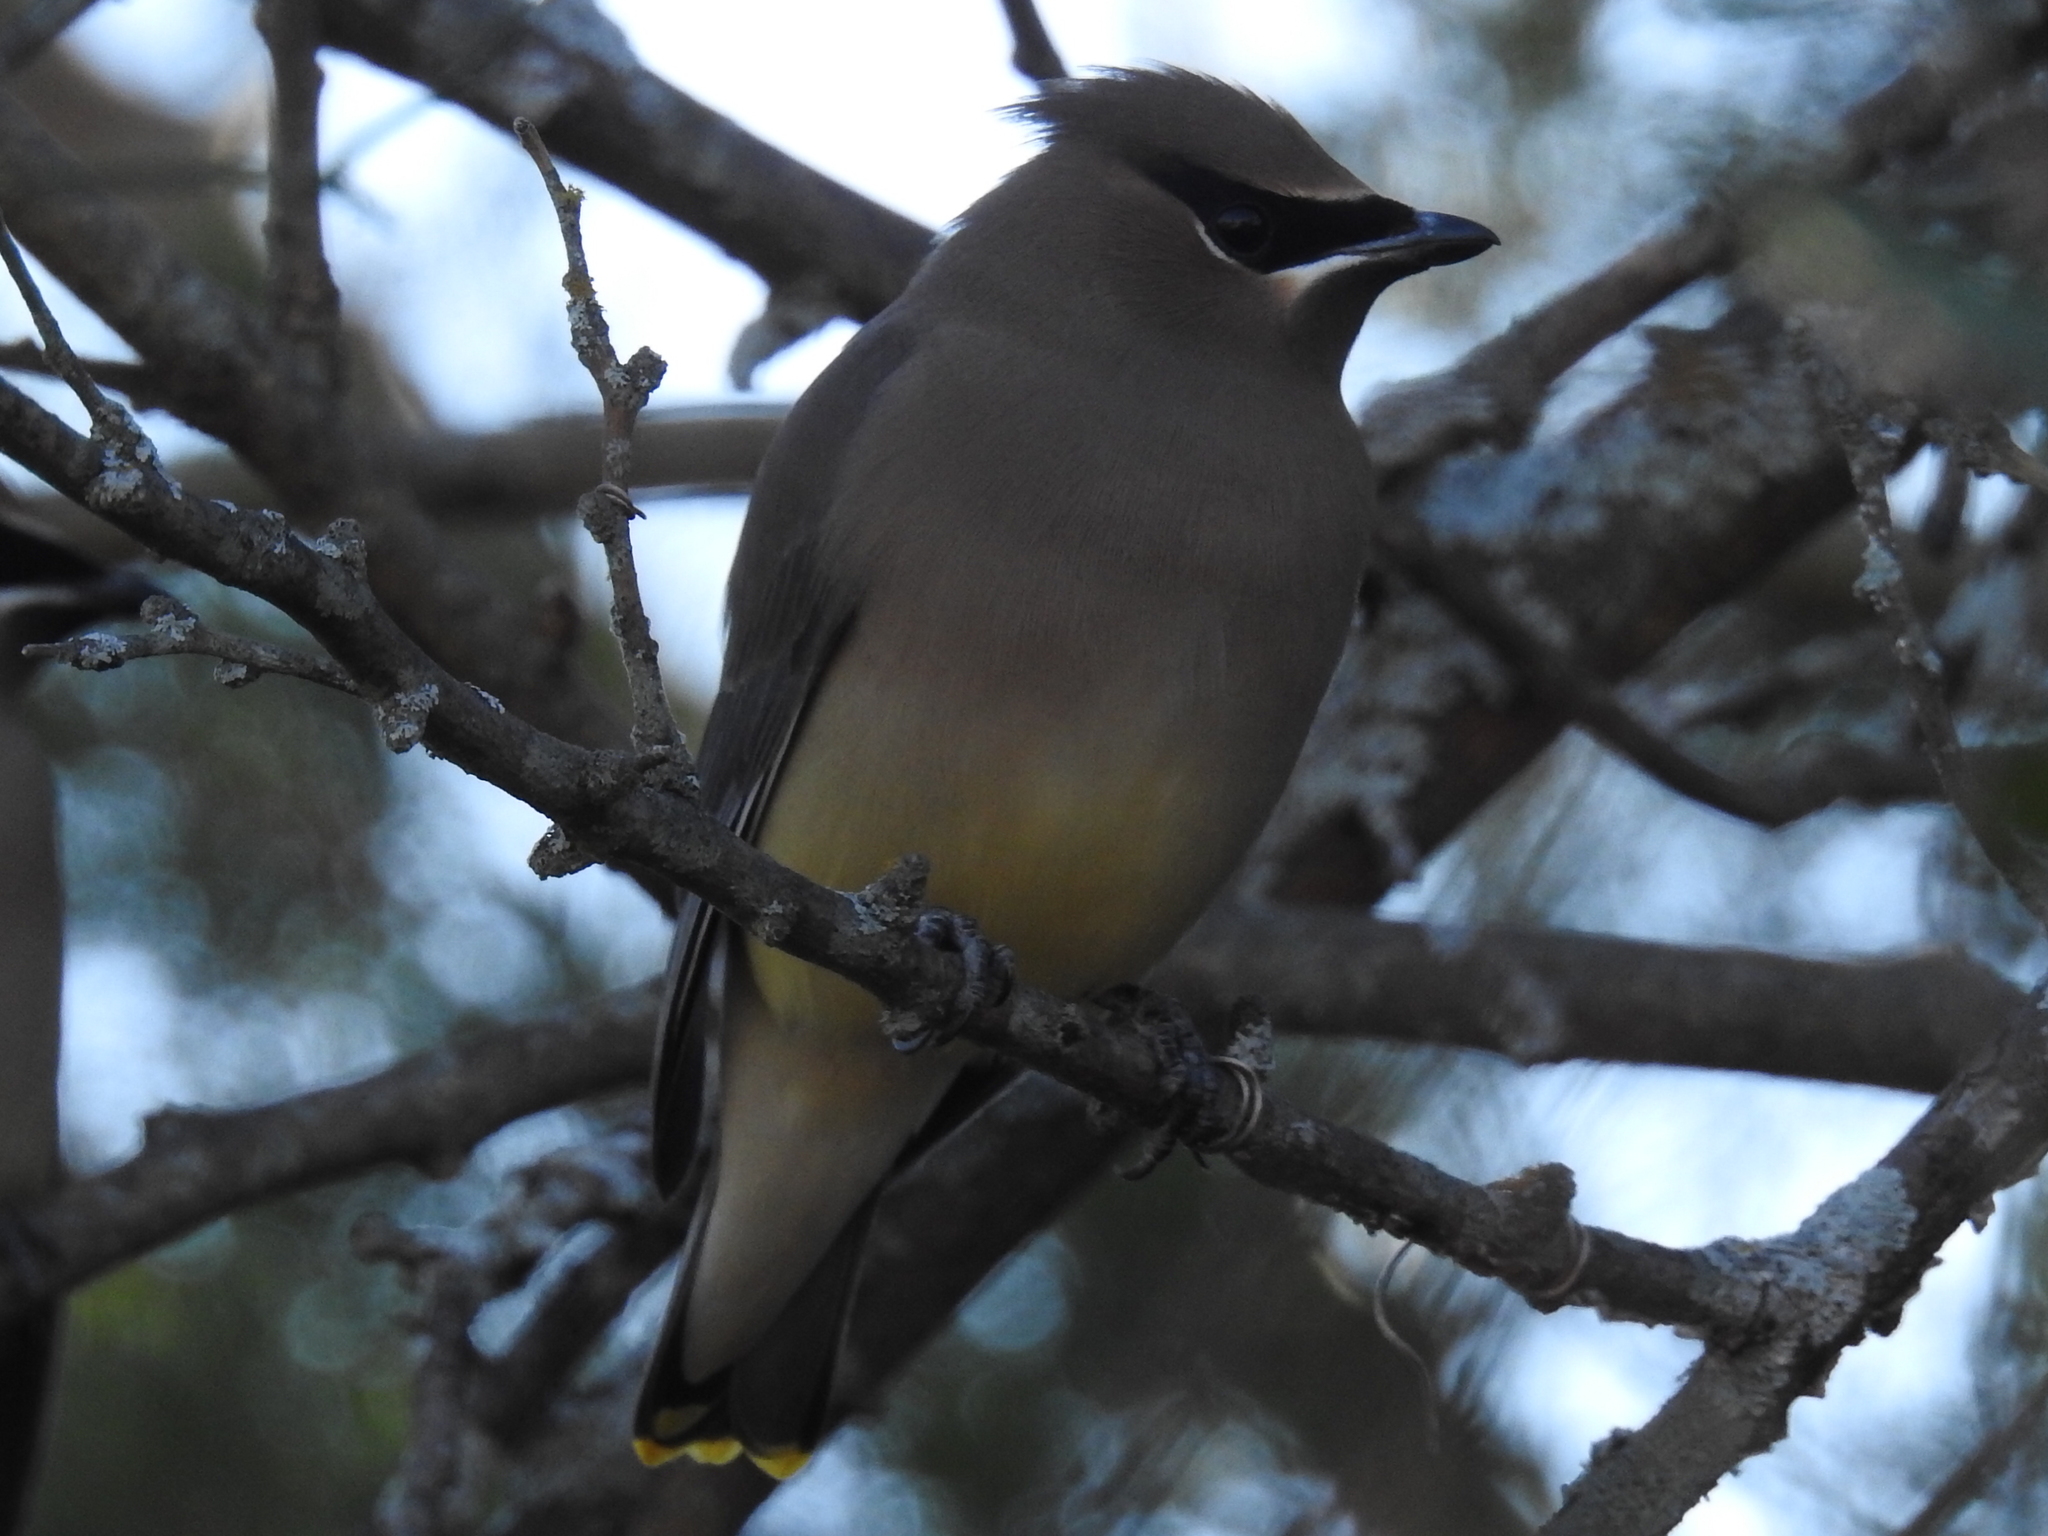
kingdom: Animalia
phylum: Chordata
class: Aves
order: Passeriformes
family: Bombycillidae
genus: Bombycilla
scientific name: Bombycilla cedrorum
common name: Cedar waxwing
